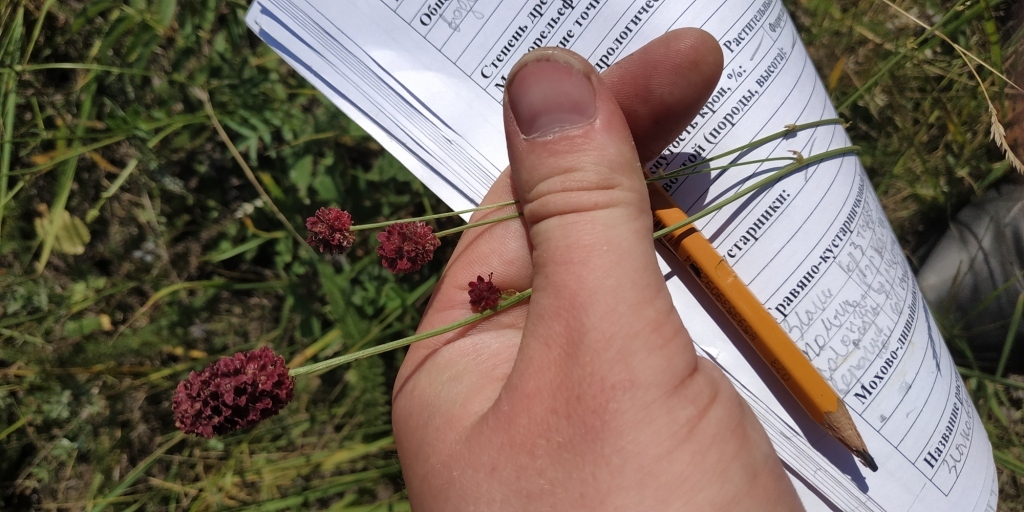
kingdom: Plantae
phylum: Tracheophyta
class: Magnoliopsida
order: Rosales
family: Rosaceae
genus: Sanguisorba
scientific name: Sanguisorba officinalis
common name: Great burnet
